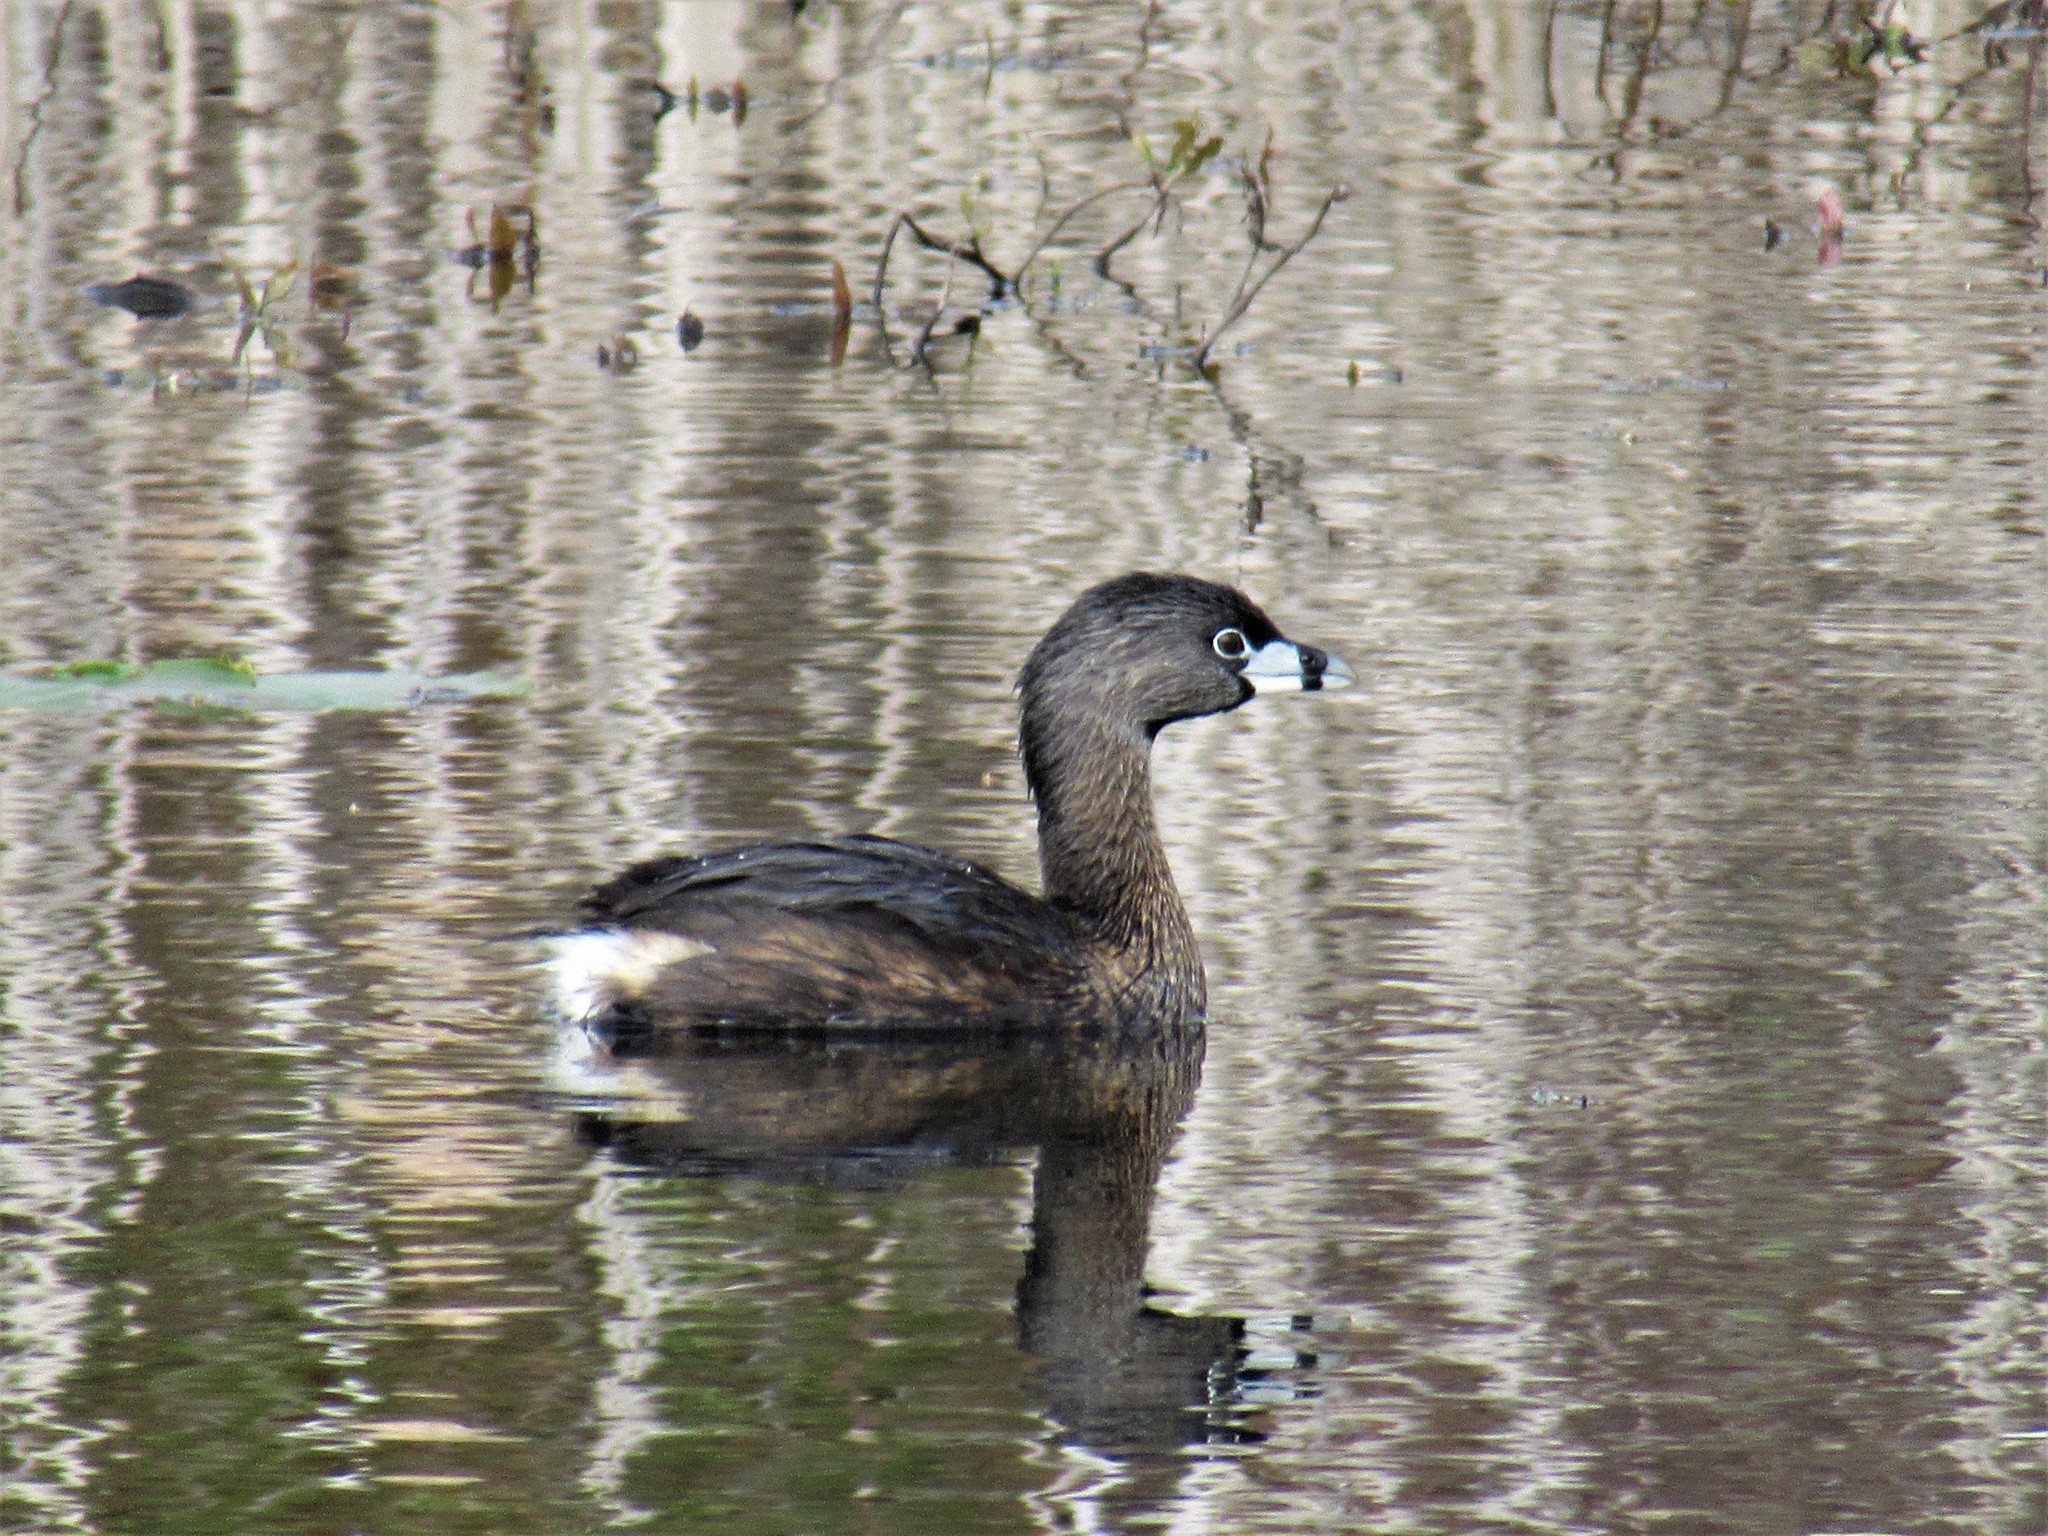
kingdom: Animalia
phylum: Chordata
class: Aves
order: Podicipediformes
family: Podicipedidae
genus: Podilymbus
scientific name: Podilymbus podiceps
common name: Pied-billed grebe
